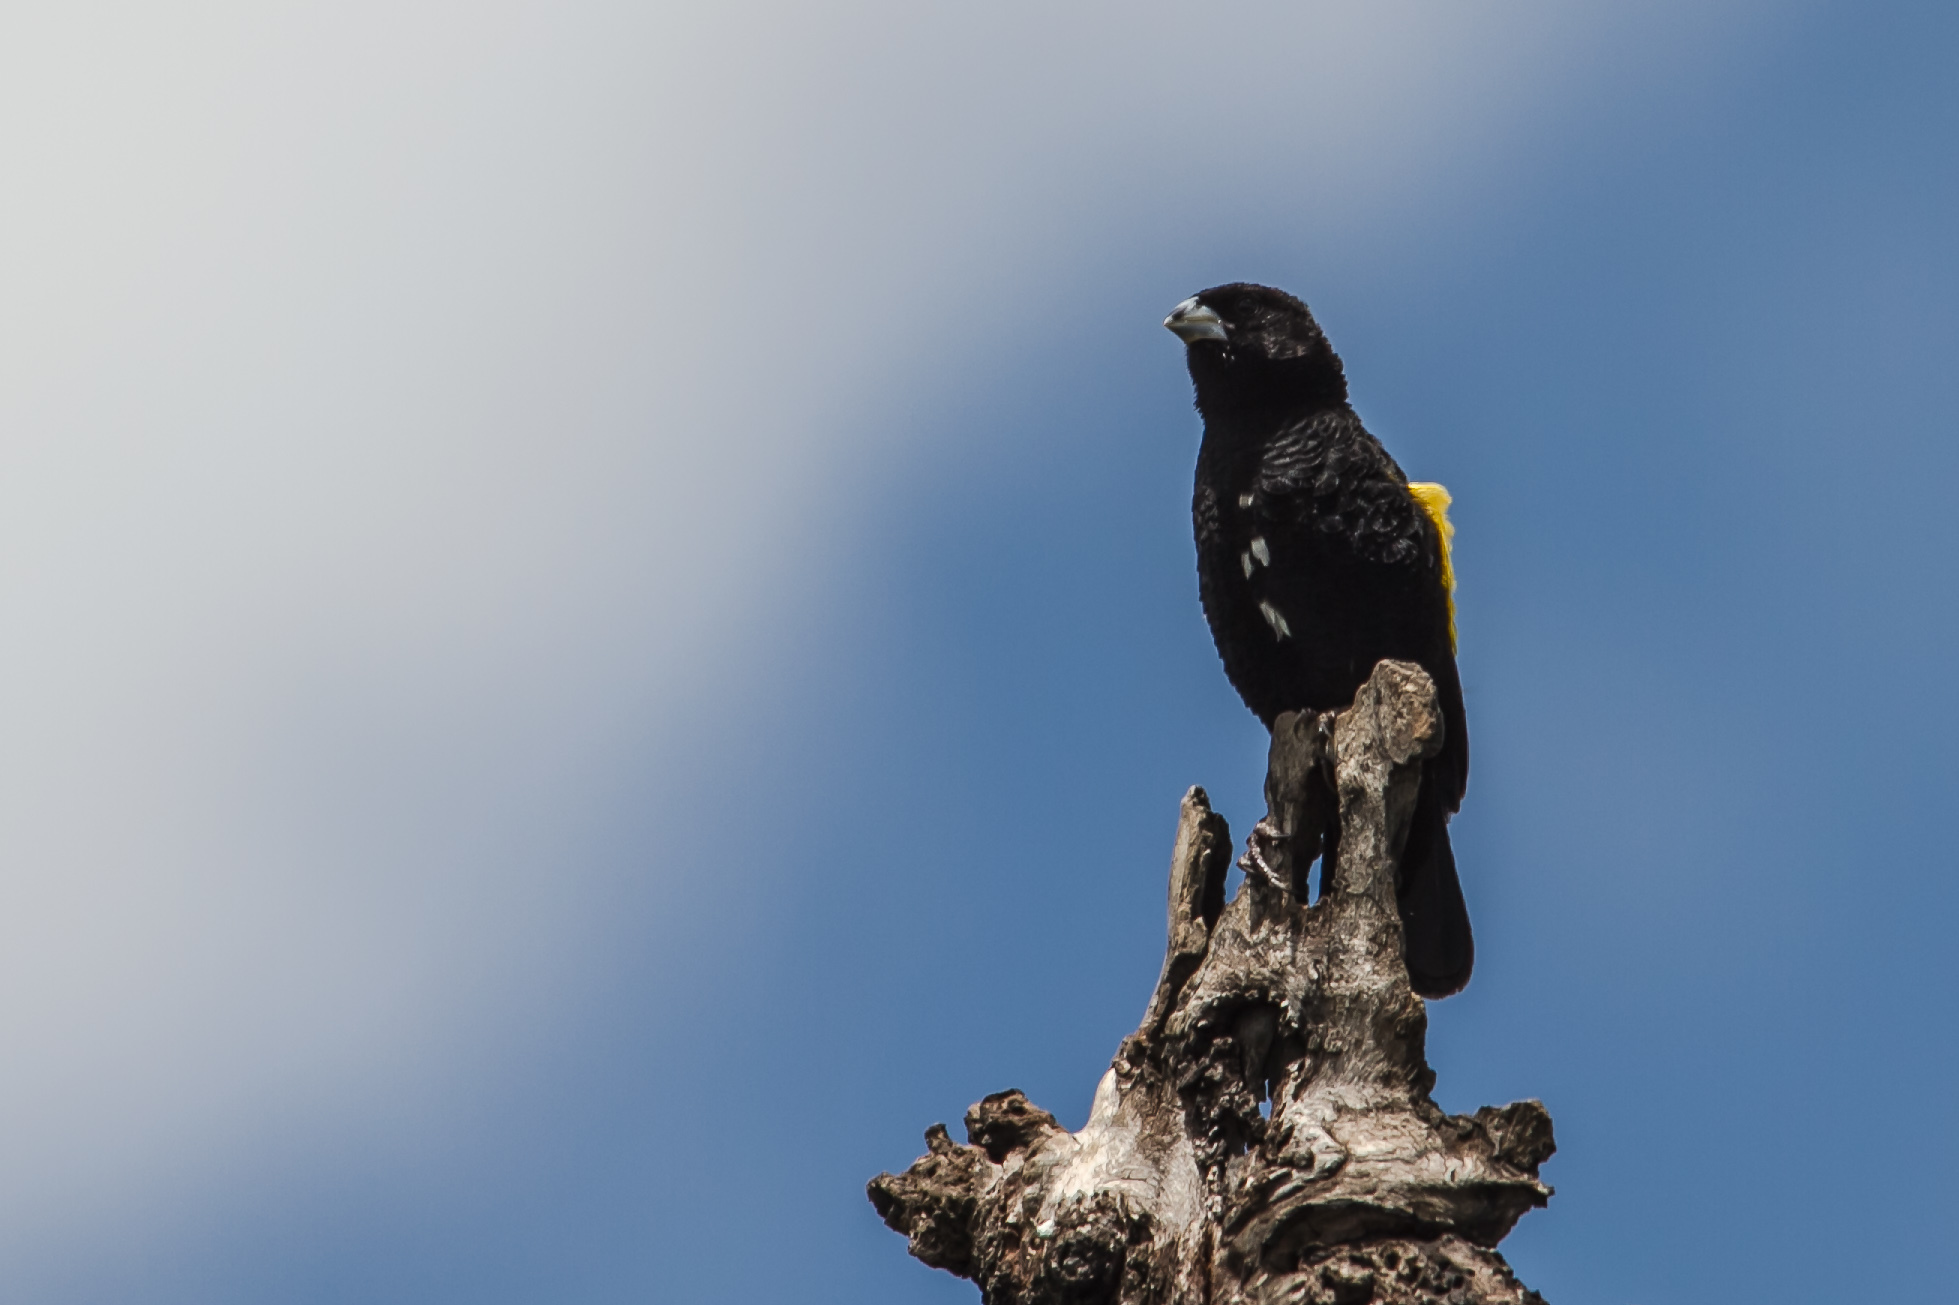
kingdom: Animalia
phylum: Chordata
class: Aves
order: Passeriformes
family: Ploceidae
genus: Euplectes
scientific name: Euplectes capensis
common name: Yellow bishop
